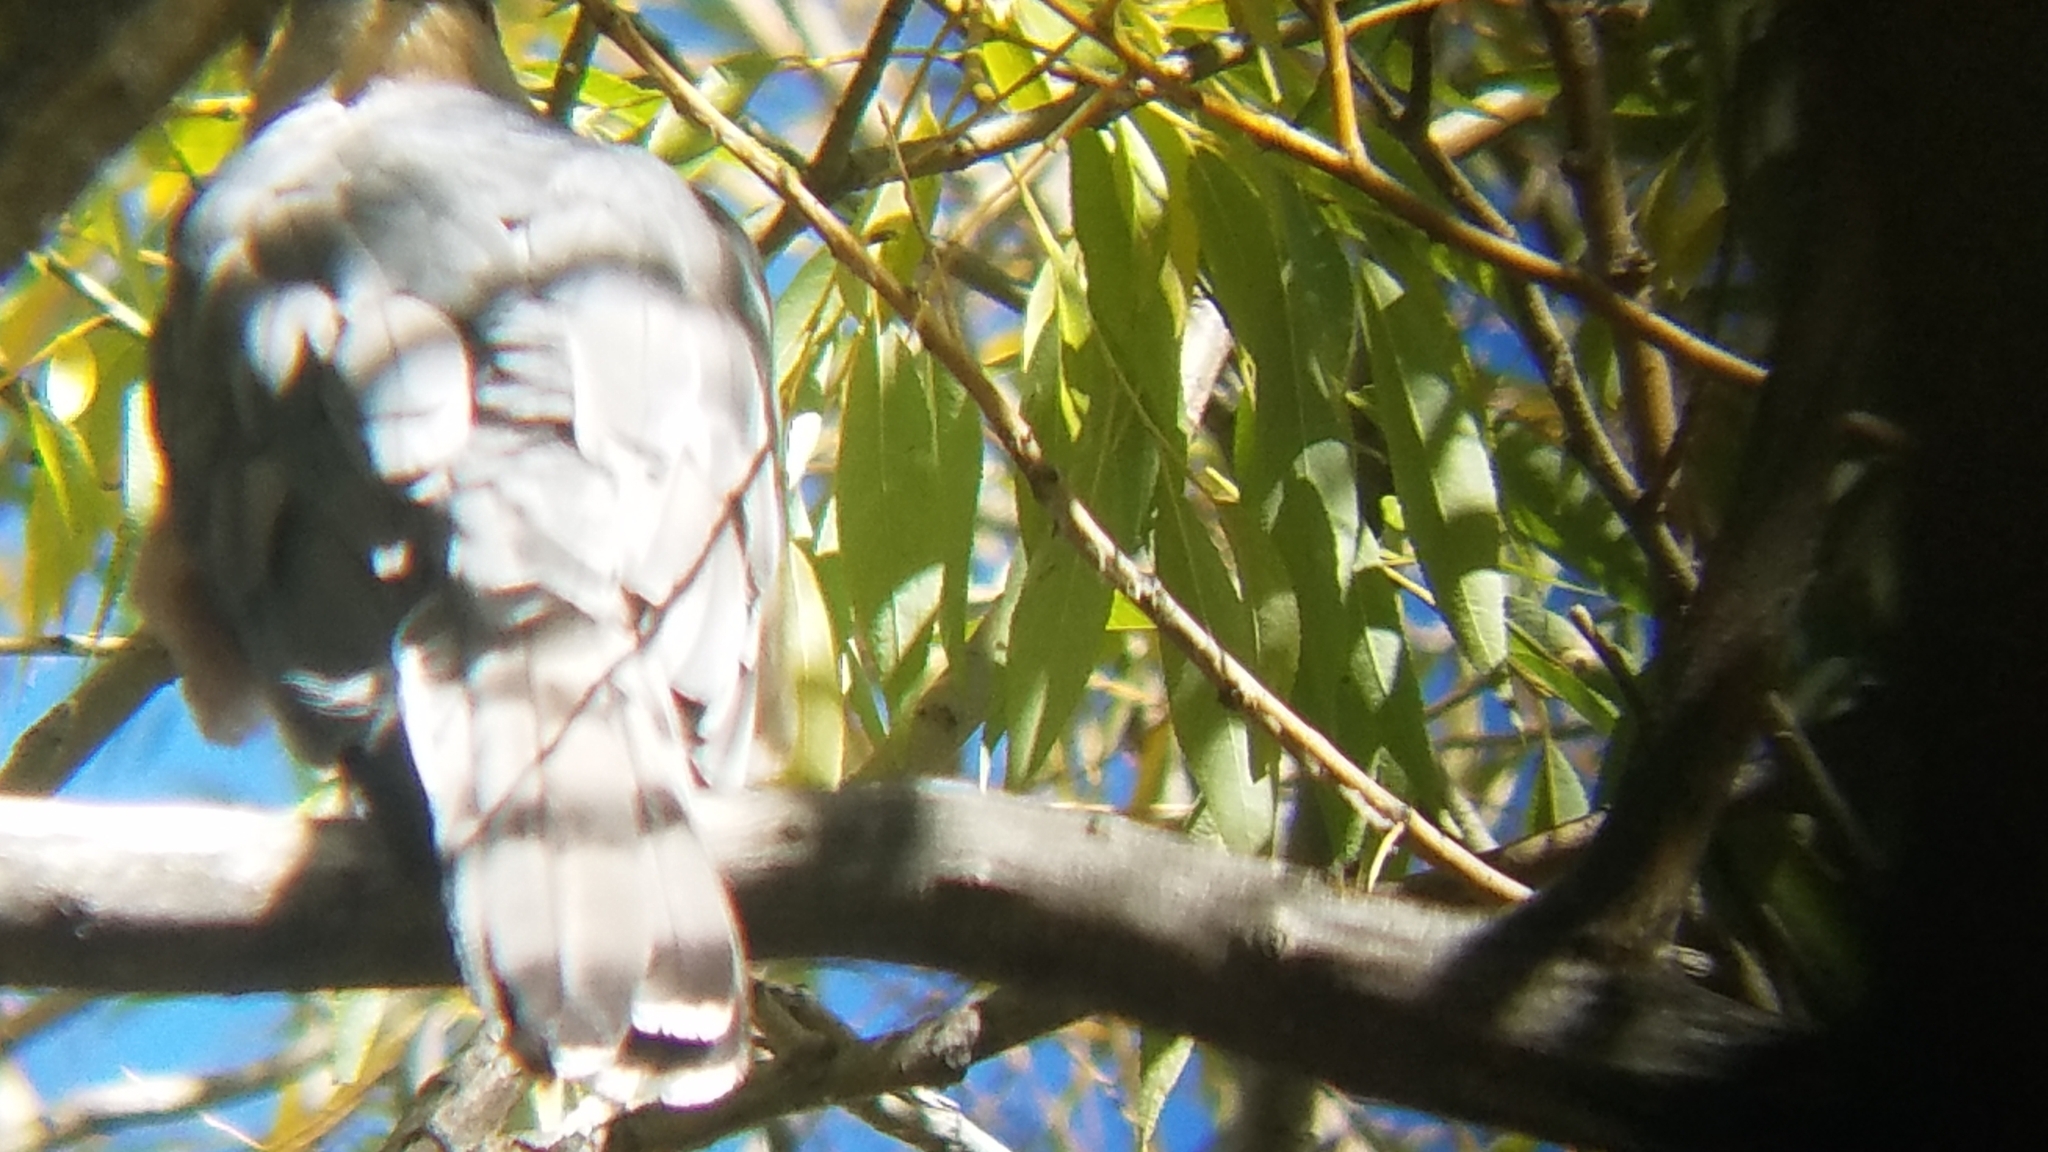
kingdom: Animalia
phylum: Chordata
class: Aves
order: Accipitriformes
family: Accipitridae
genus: Accipiter
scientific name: Accipiter cooperii
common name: Cooper's hawk
